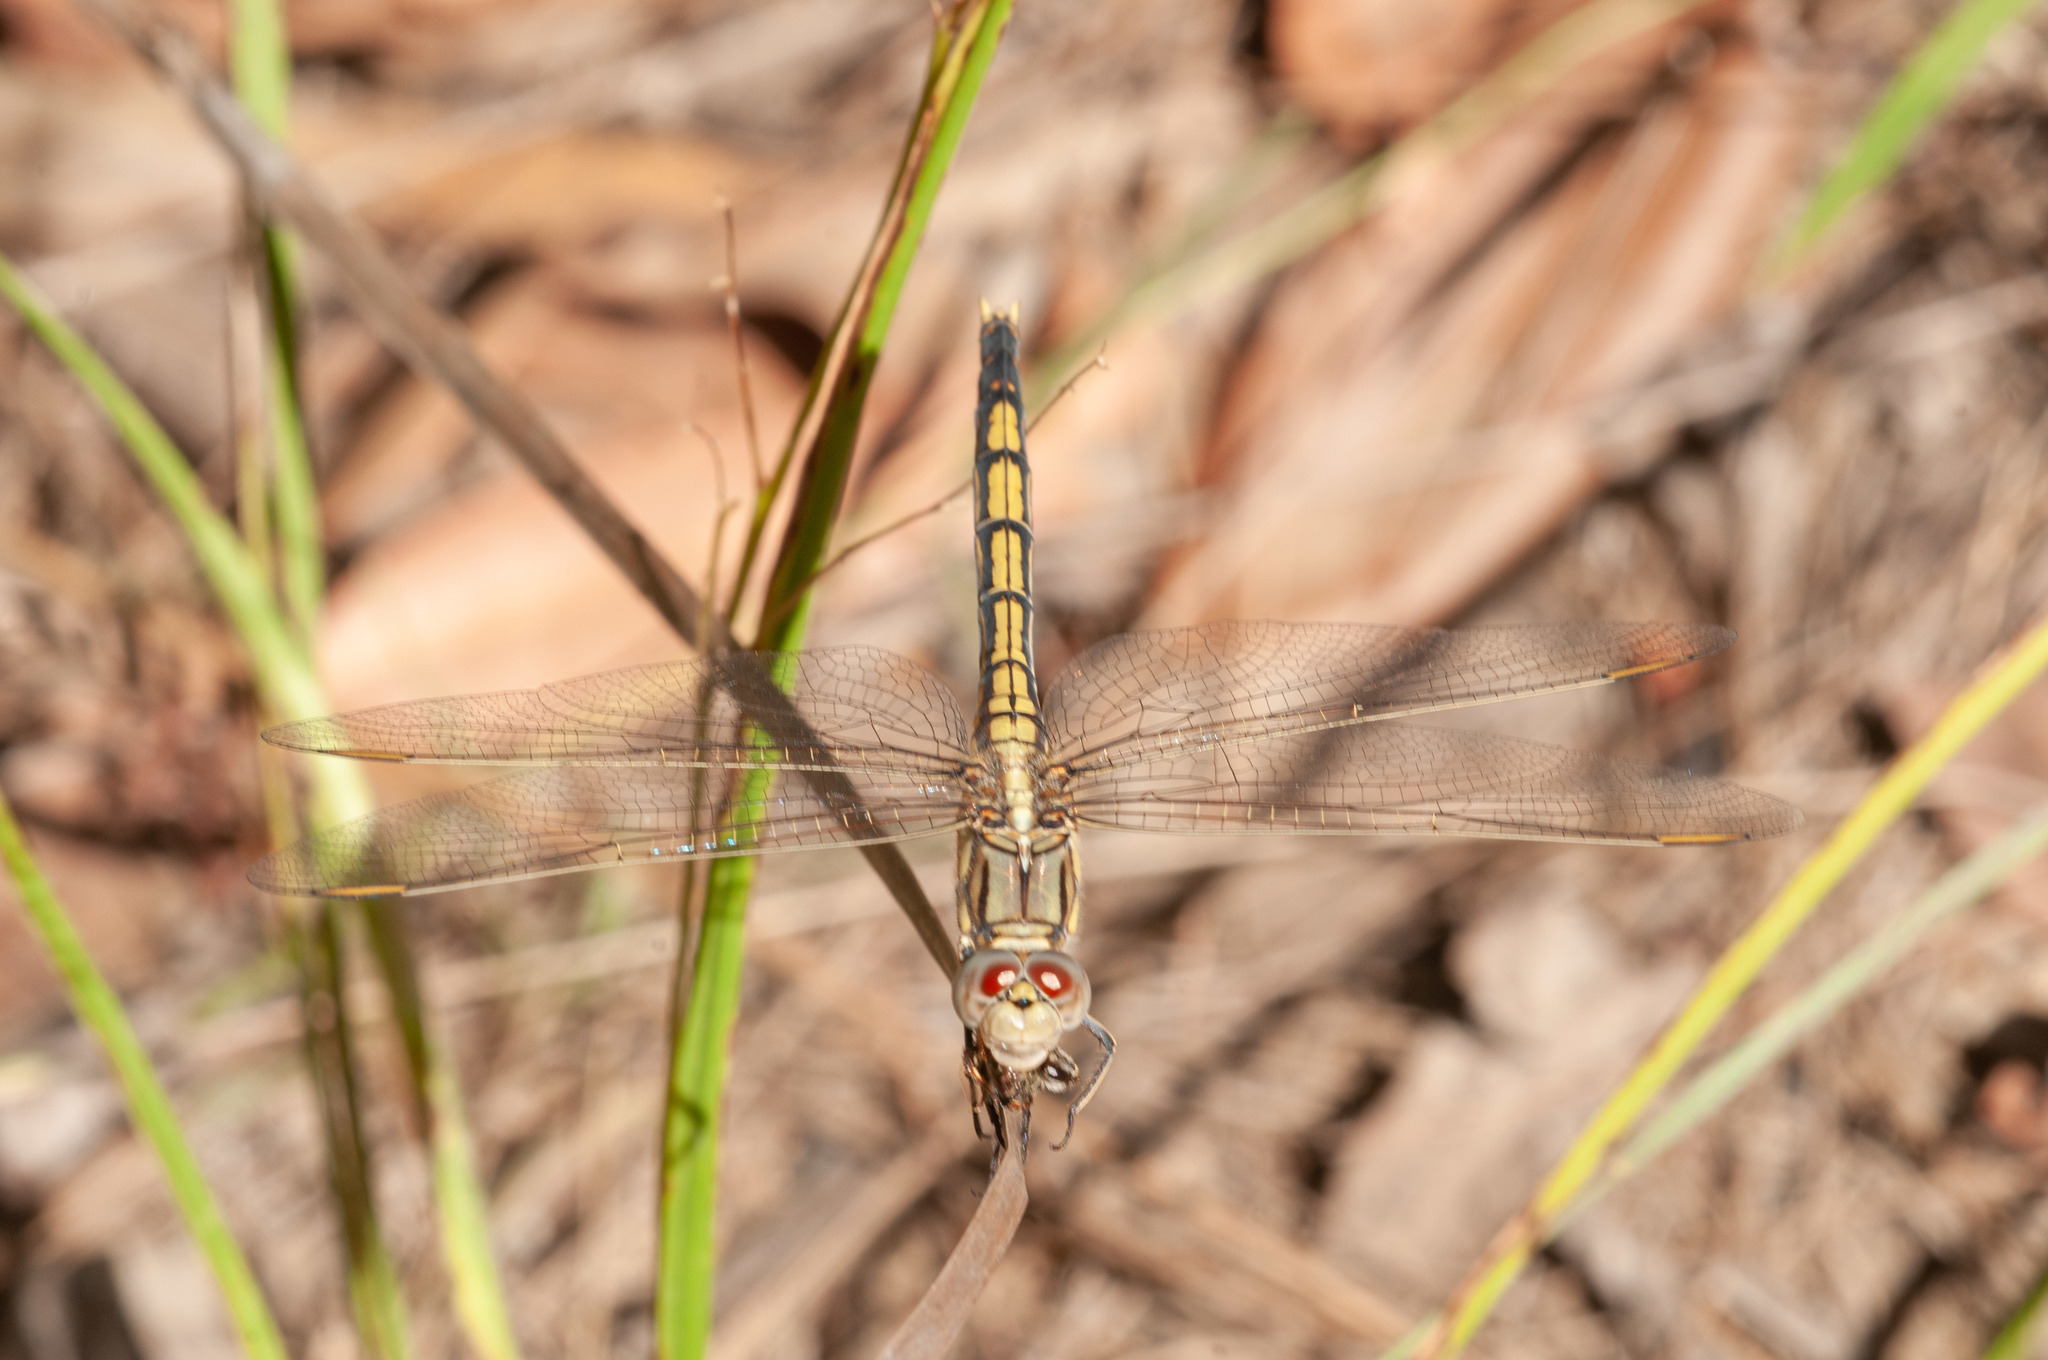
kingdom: Animalia
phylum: Arthropoda
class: Insecta
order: Odonata
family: Libellulidae
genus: Orthetrum
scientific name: Orthetrum caledonicum
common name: Blue skimmer
